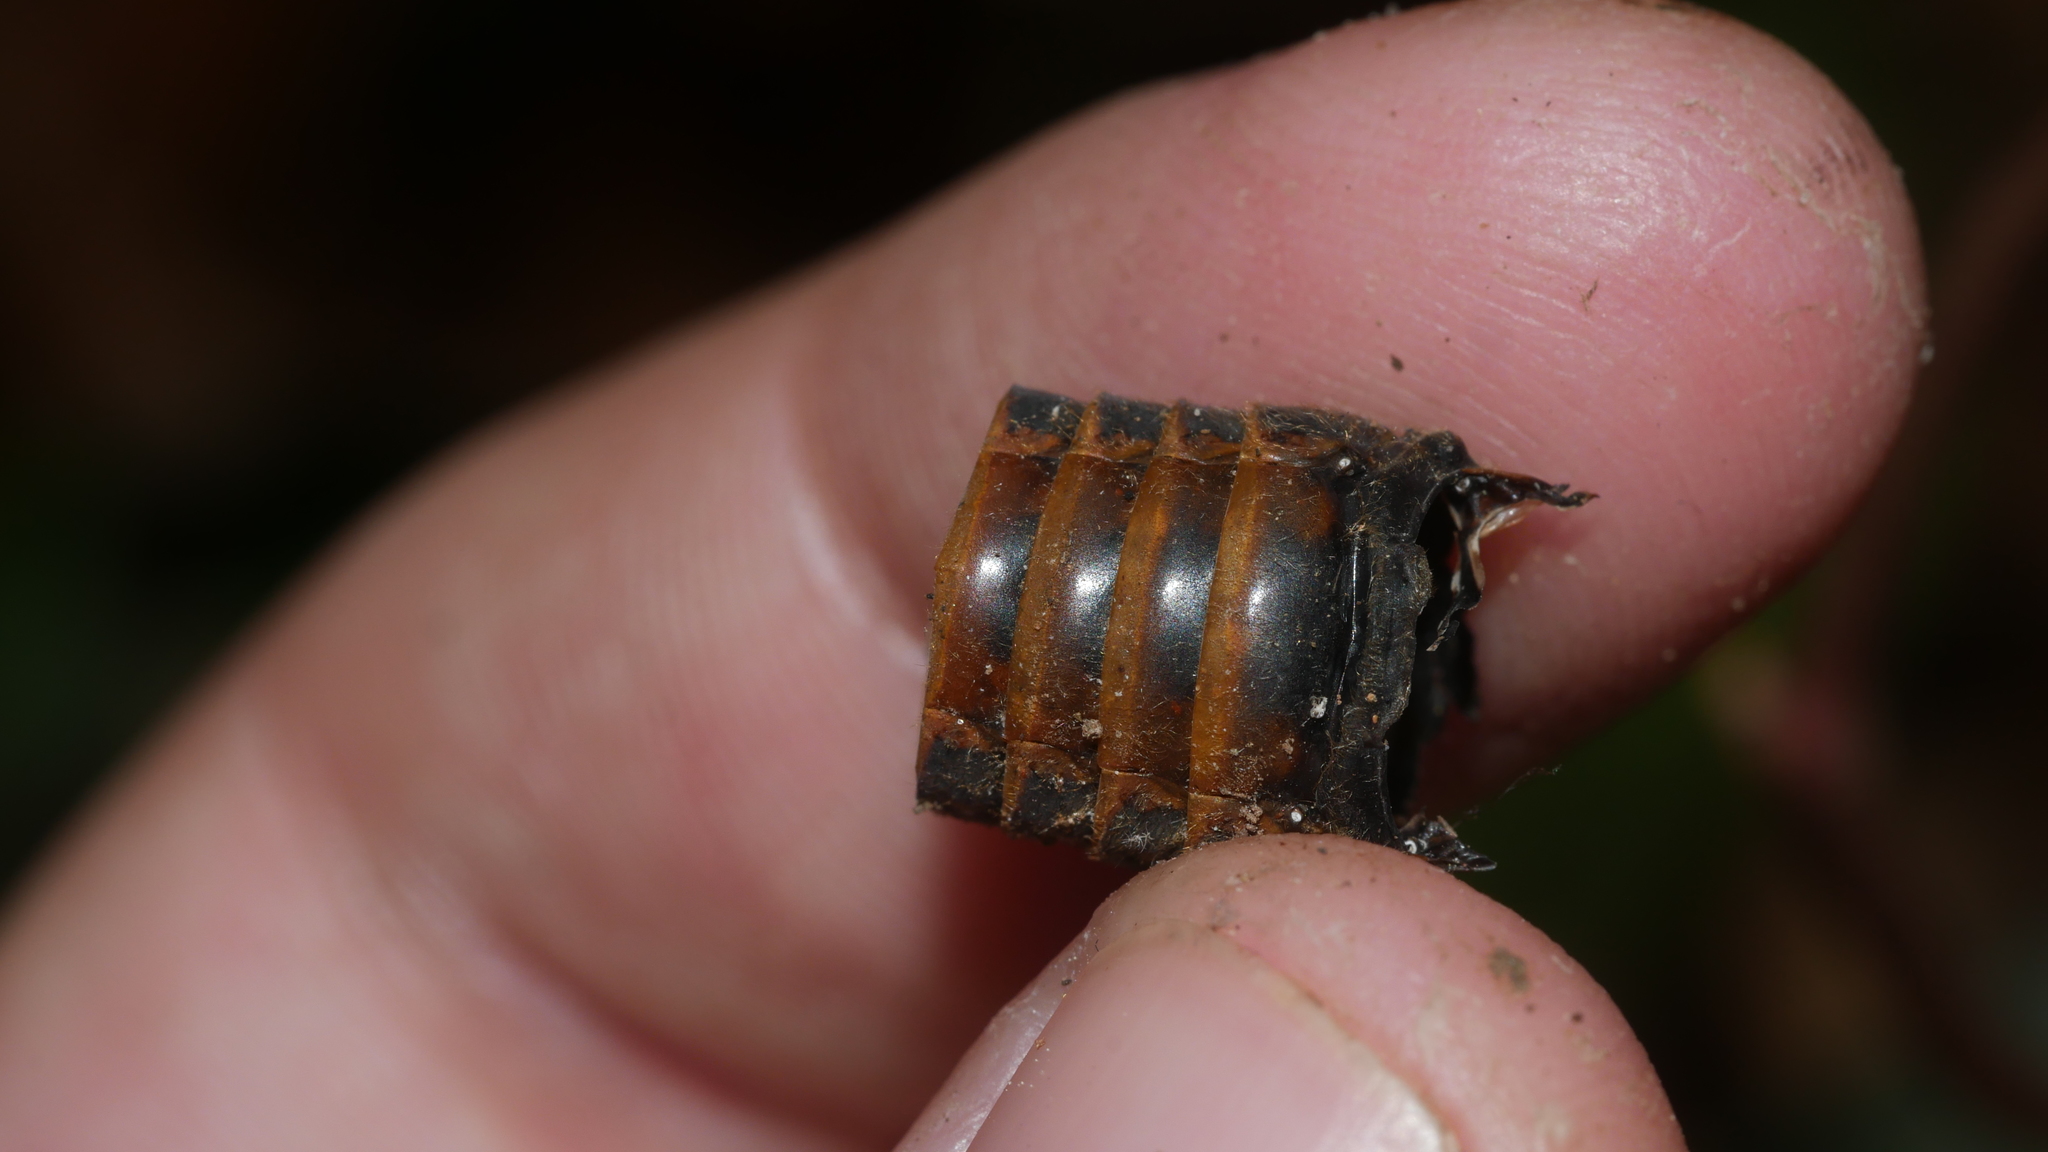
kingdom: Animalia
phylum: Arthropoda
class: Insecta
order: Hemiptera
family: Cicadidae
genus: Magicicada
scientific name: Magicicada septendecim
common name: Periodical cicada
